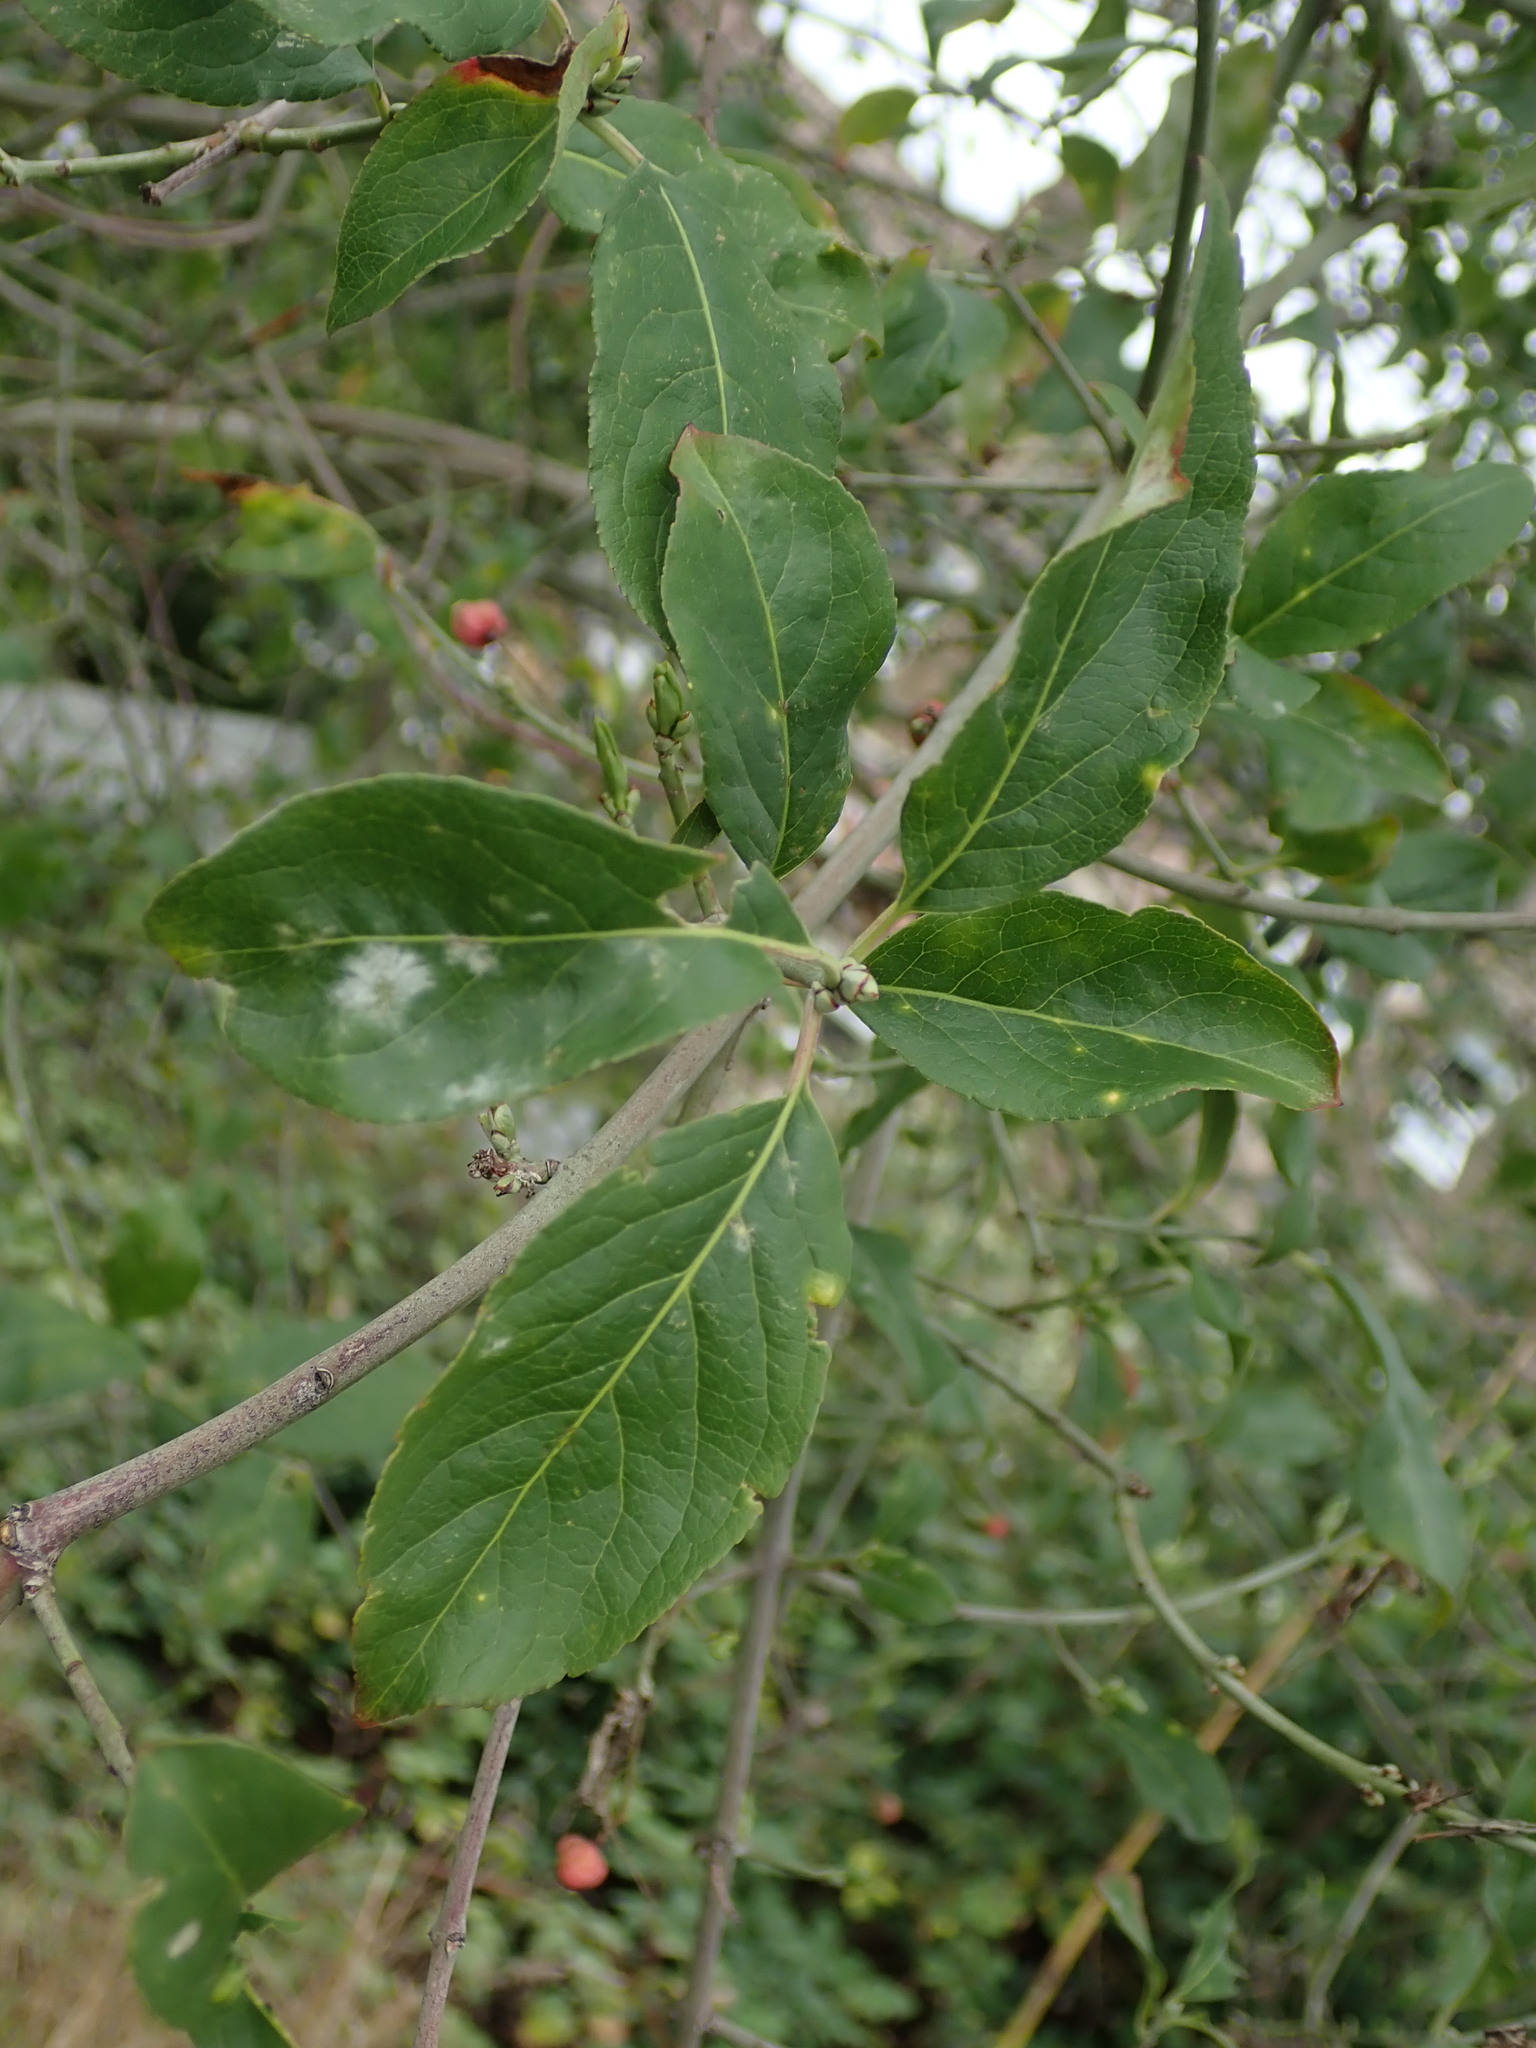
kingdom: Plantae
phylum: Tracheophyta
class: Magnoliopsida
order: Celastrales
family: Celastraceae
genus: Euonymus
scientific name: Euonymus europaeus
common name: Spindle
